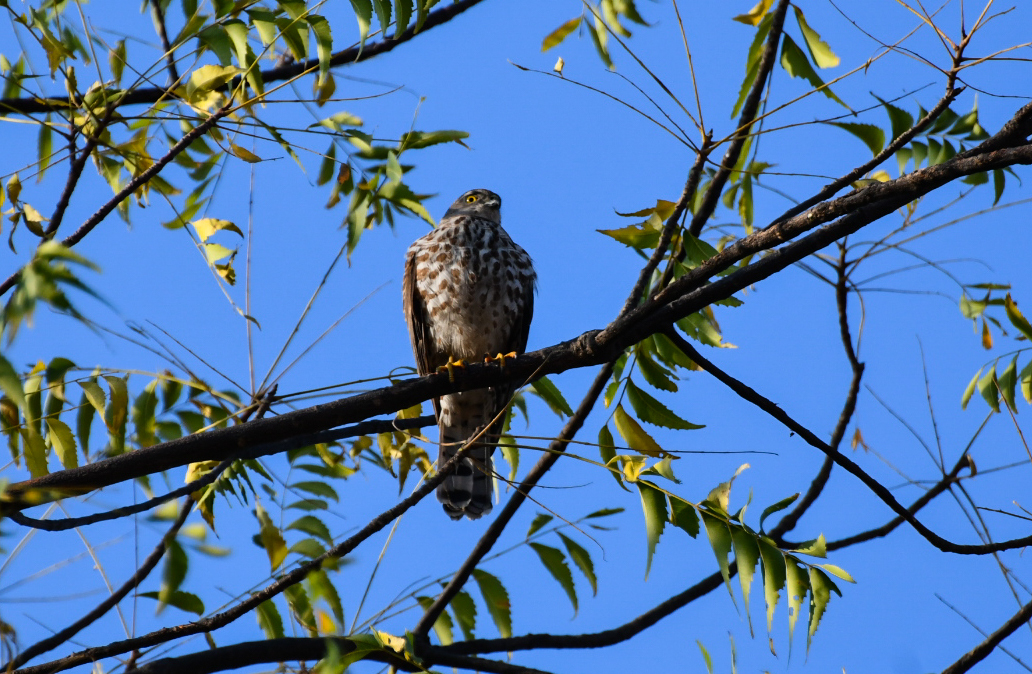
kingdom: Animalia
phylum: Chordata
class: Aves
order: Accipitriformes
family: Accipitridae
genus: Accipiter
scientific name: Accipiter badius
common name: Shikra
